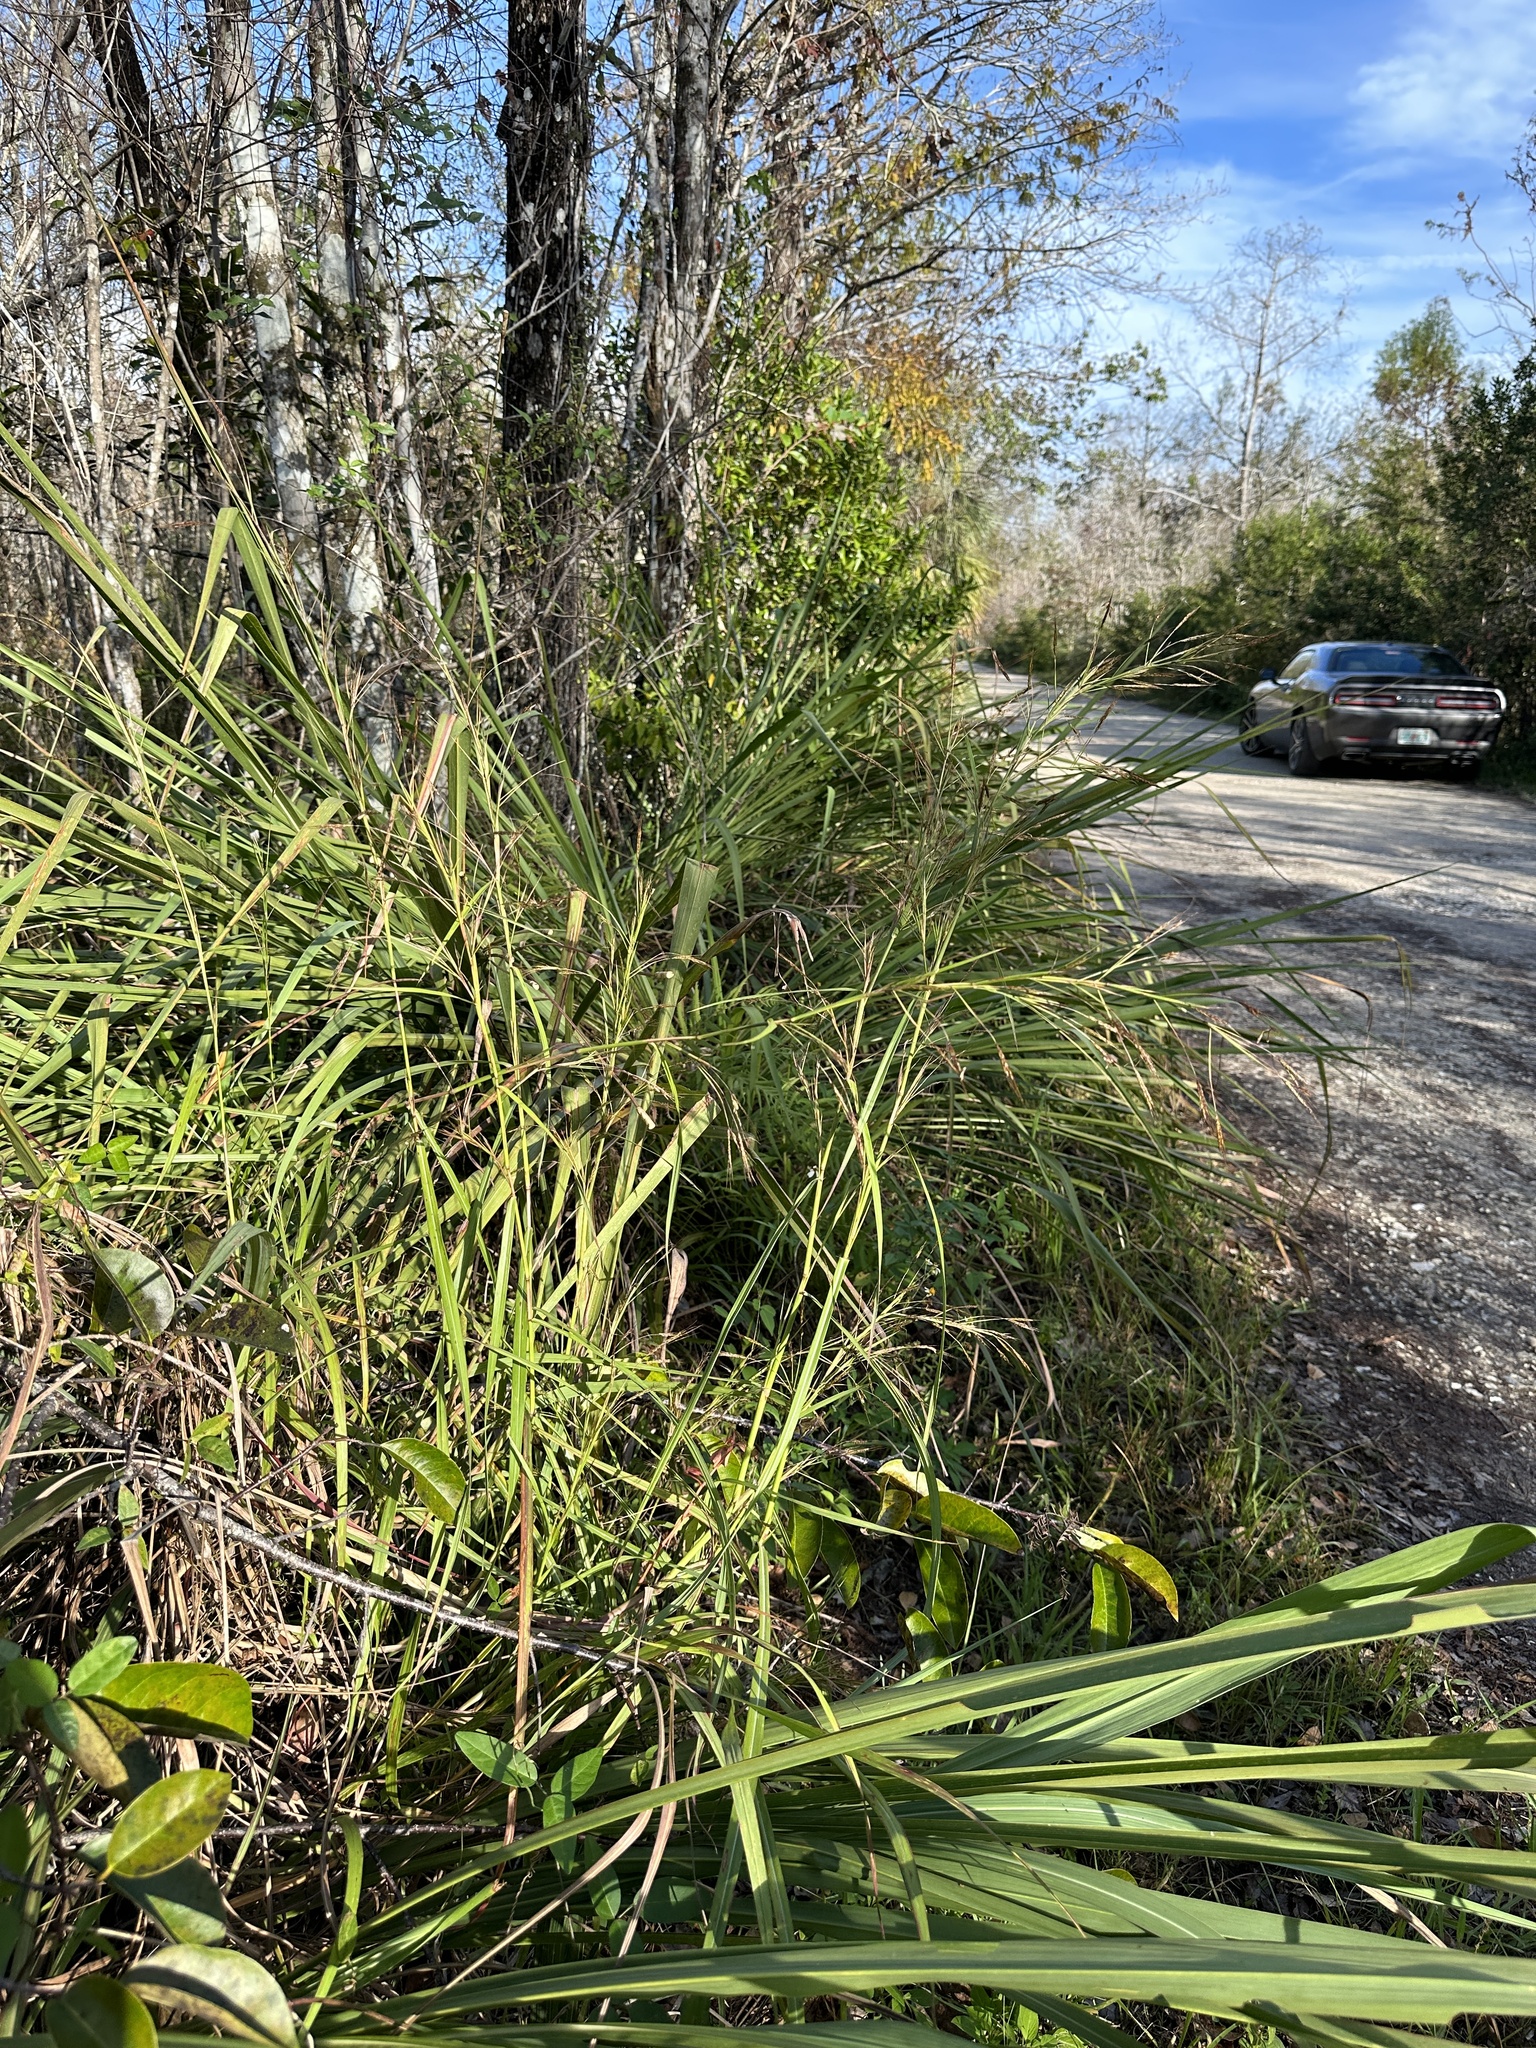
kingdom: Plantae
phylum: Tracheophyta
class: Liliopsida
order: Poales
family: Poaceae
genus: Hyparrhenia
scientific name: Hyparrhenia rufa
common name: Jaraguagrass
